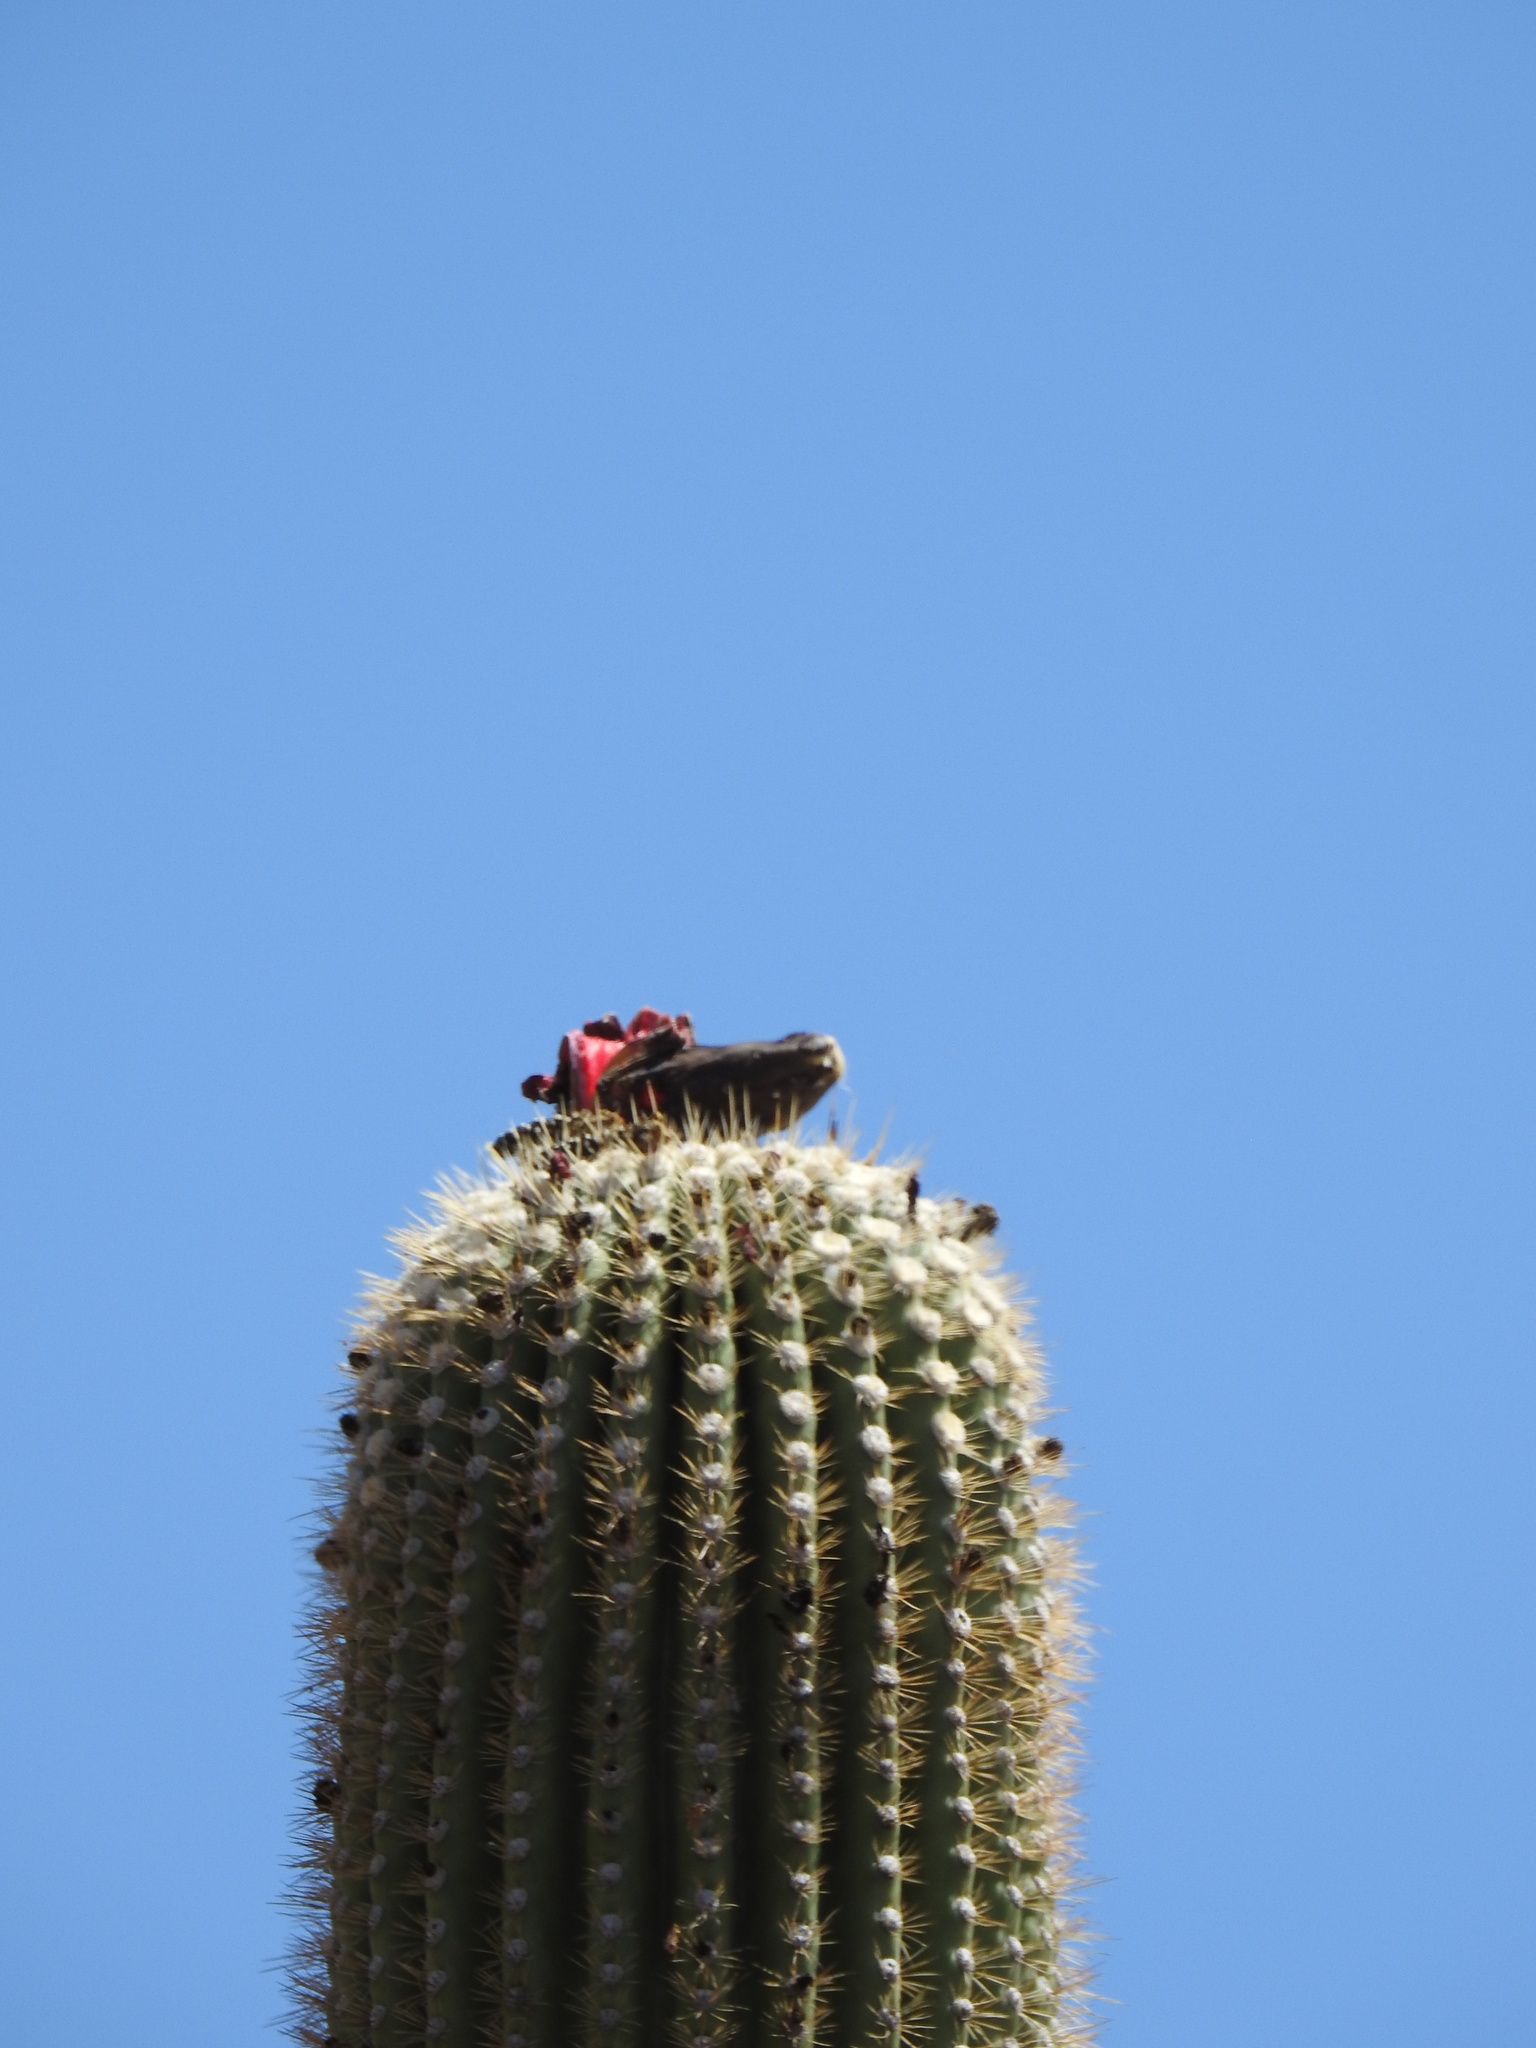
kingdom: Plantae
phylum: Tracheophyta
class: Magnoliopsida
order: Caryophyllales
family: Cactaceae
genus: Carnegiea
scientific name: Carnegiea gigantea
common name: Saguaro
